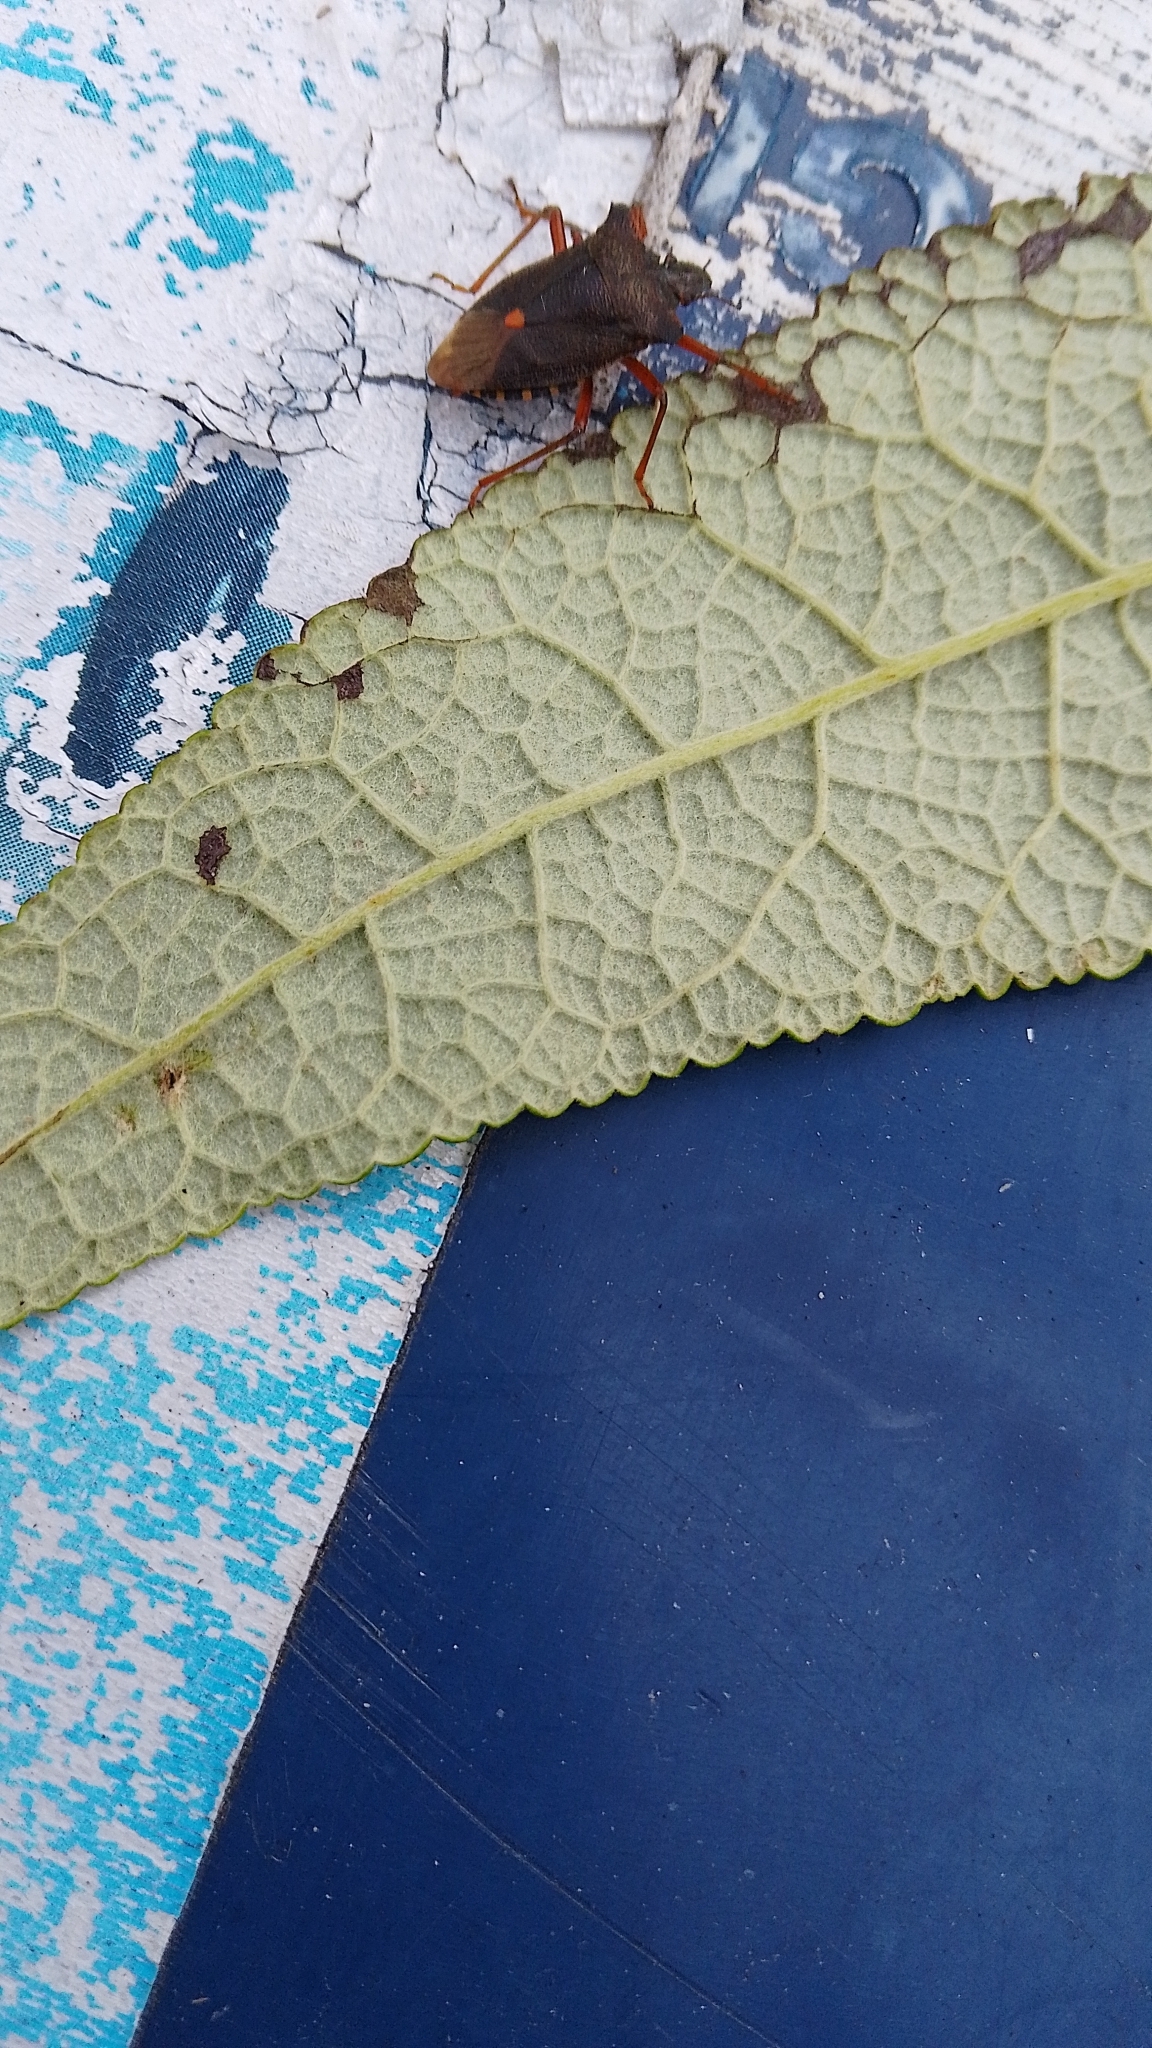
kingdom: Animalia
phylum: Arthropoda
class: Insecta
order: Hemiptera
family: Pentatomidae
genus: Pentatoma
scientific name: Pentatoma rufipes
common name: Forest bug
